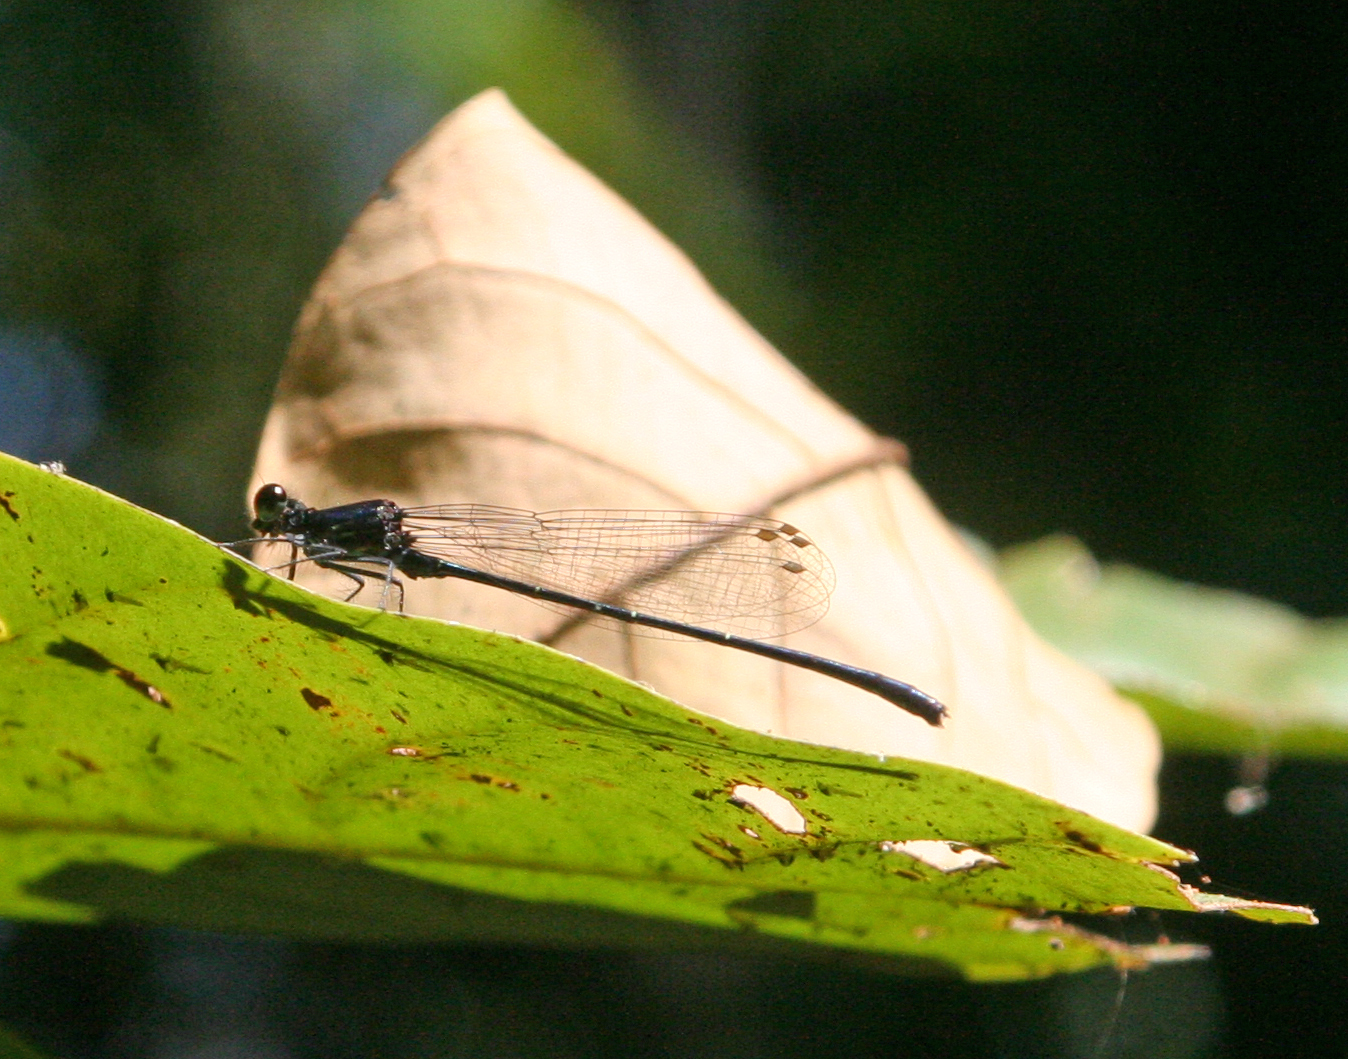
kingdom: Animalia
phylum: Arthropoda
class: Insecta
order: Odonata
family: Platycnemididae
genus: Onychargia
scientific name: Onychargia atrocyana
